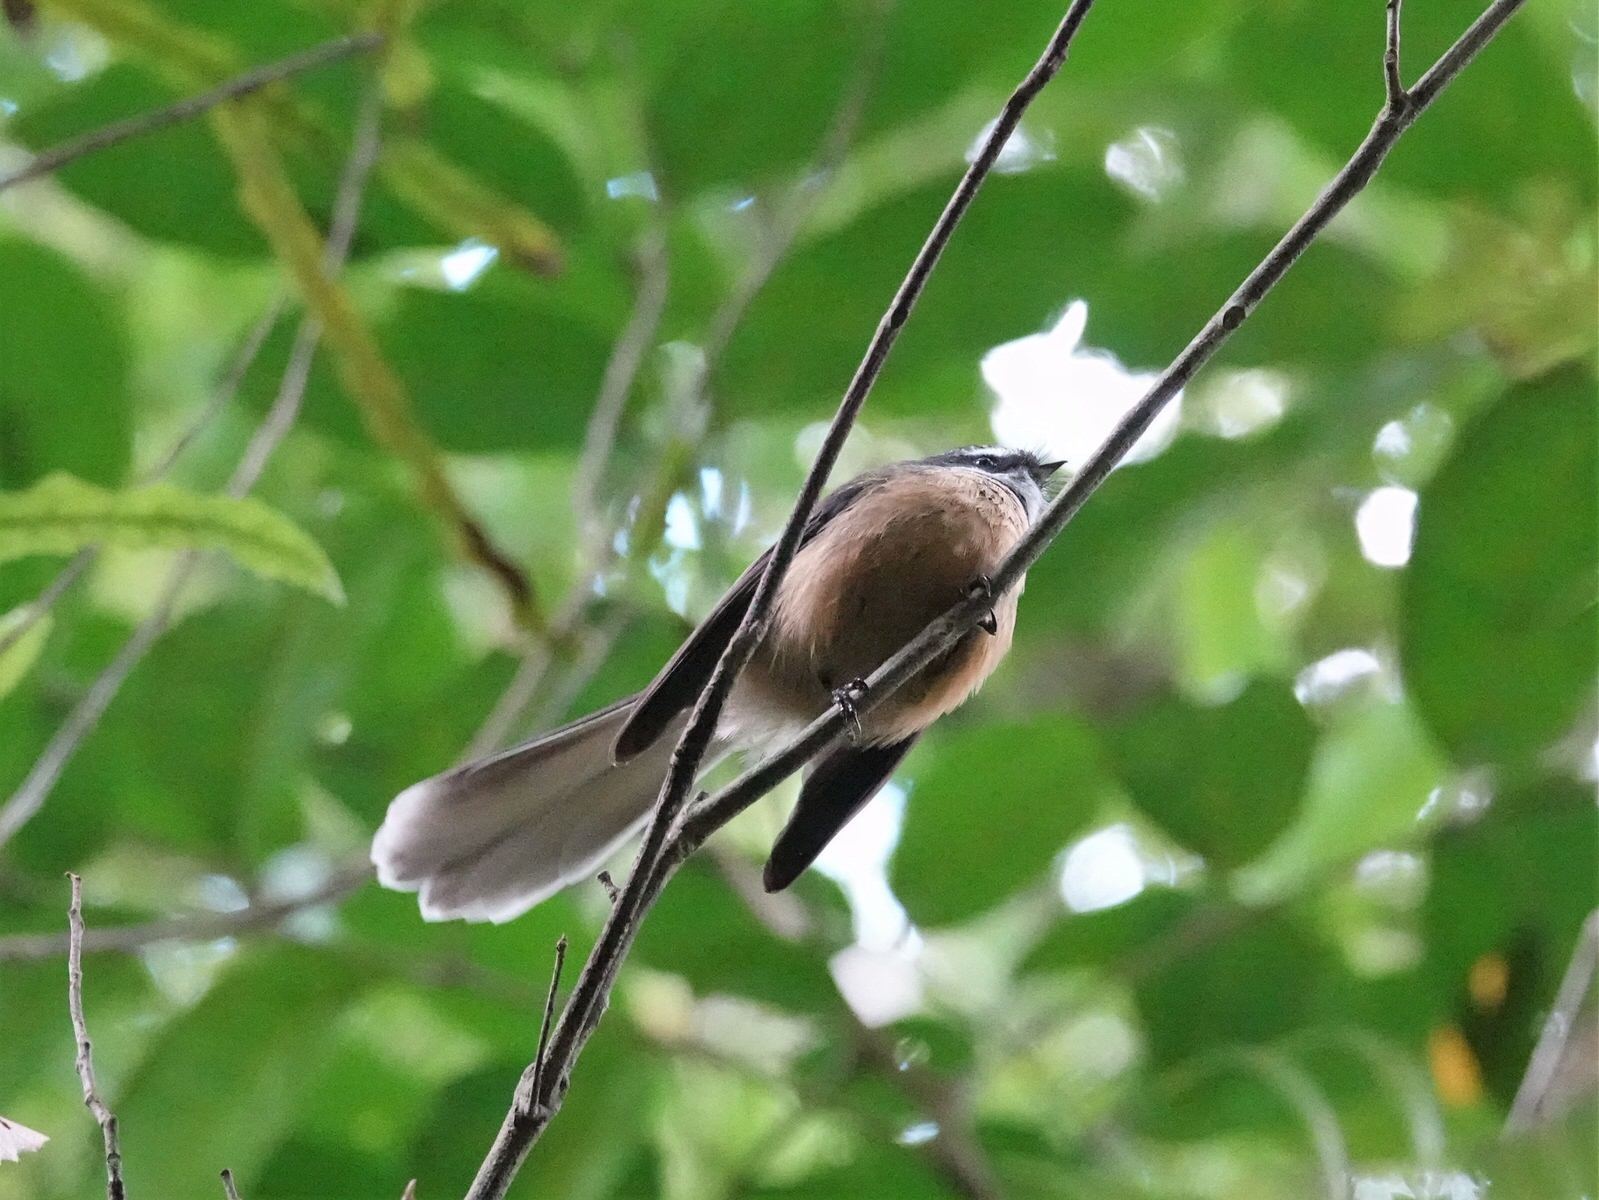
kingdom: Animalia
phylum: Chordata
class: Aves
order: Passeriformes
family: Rhipiduridae
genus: Rhipidura
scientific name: Rhipidura fuliginosa
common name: New zealand fantail
